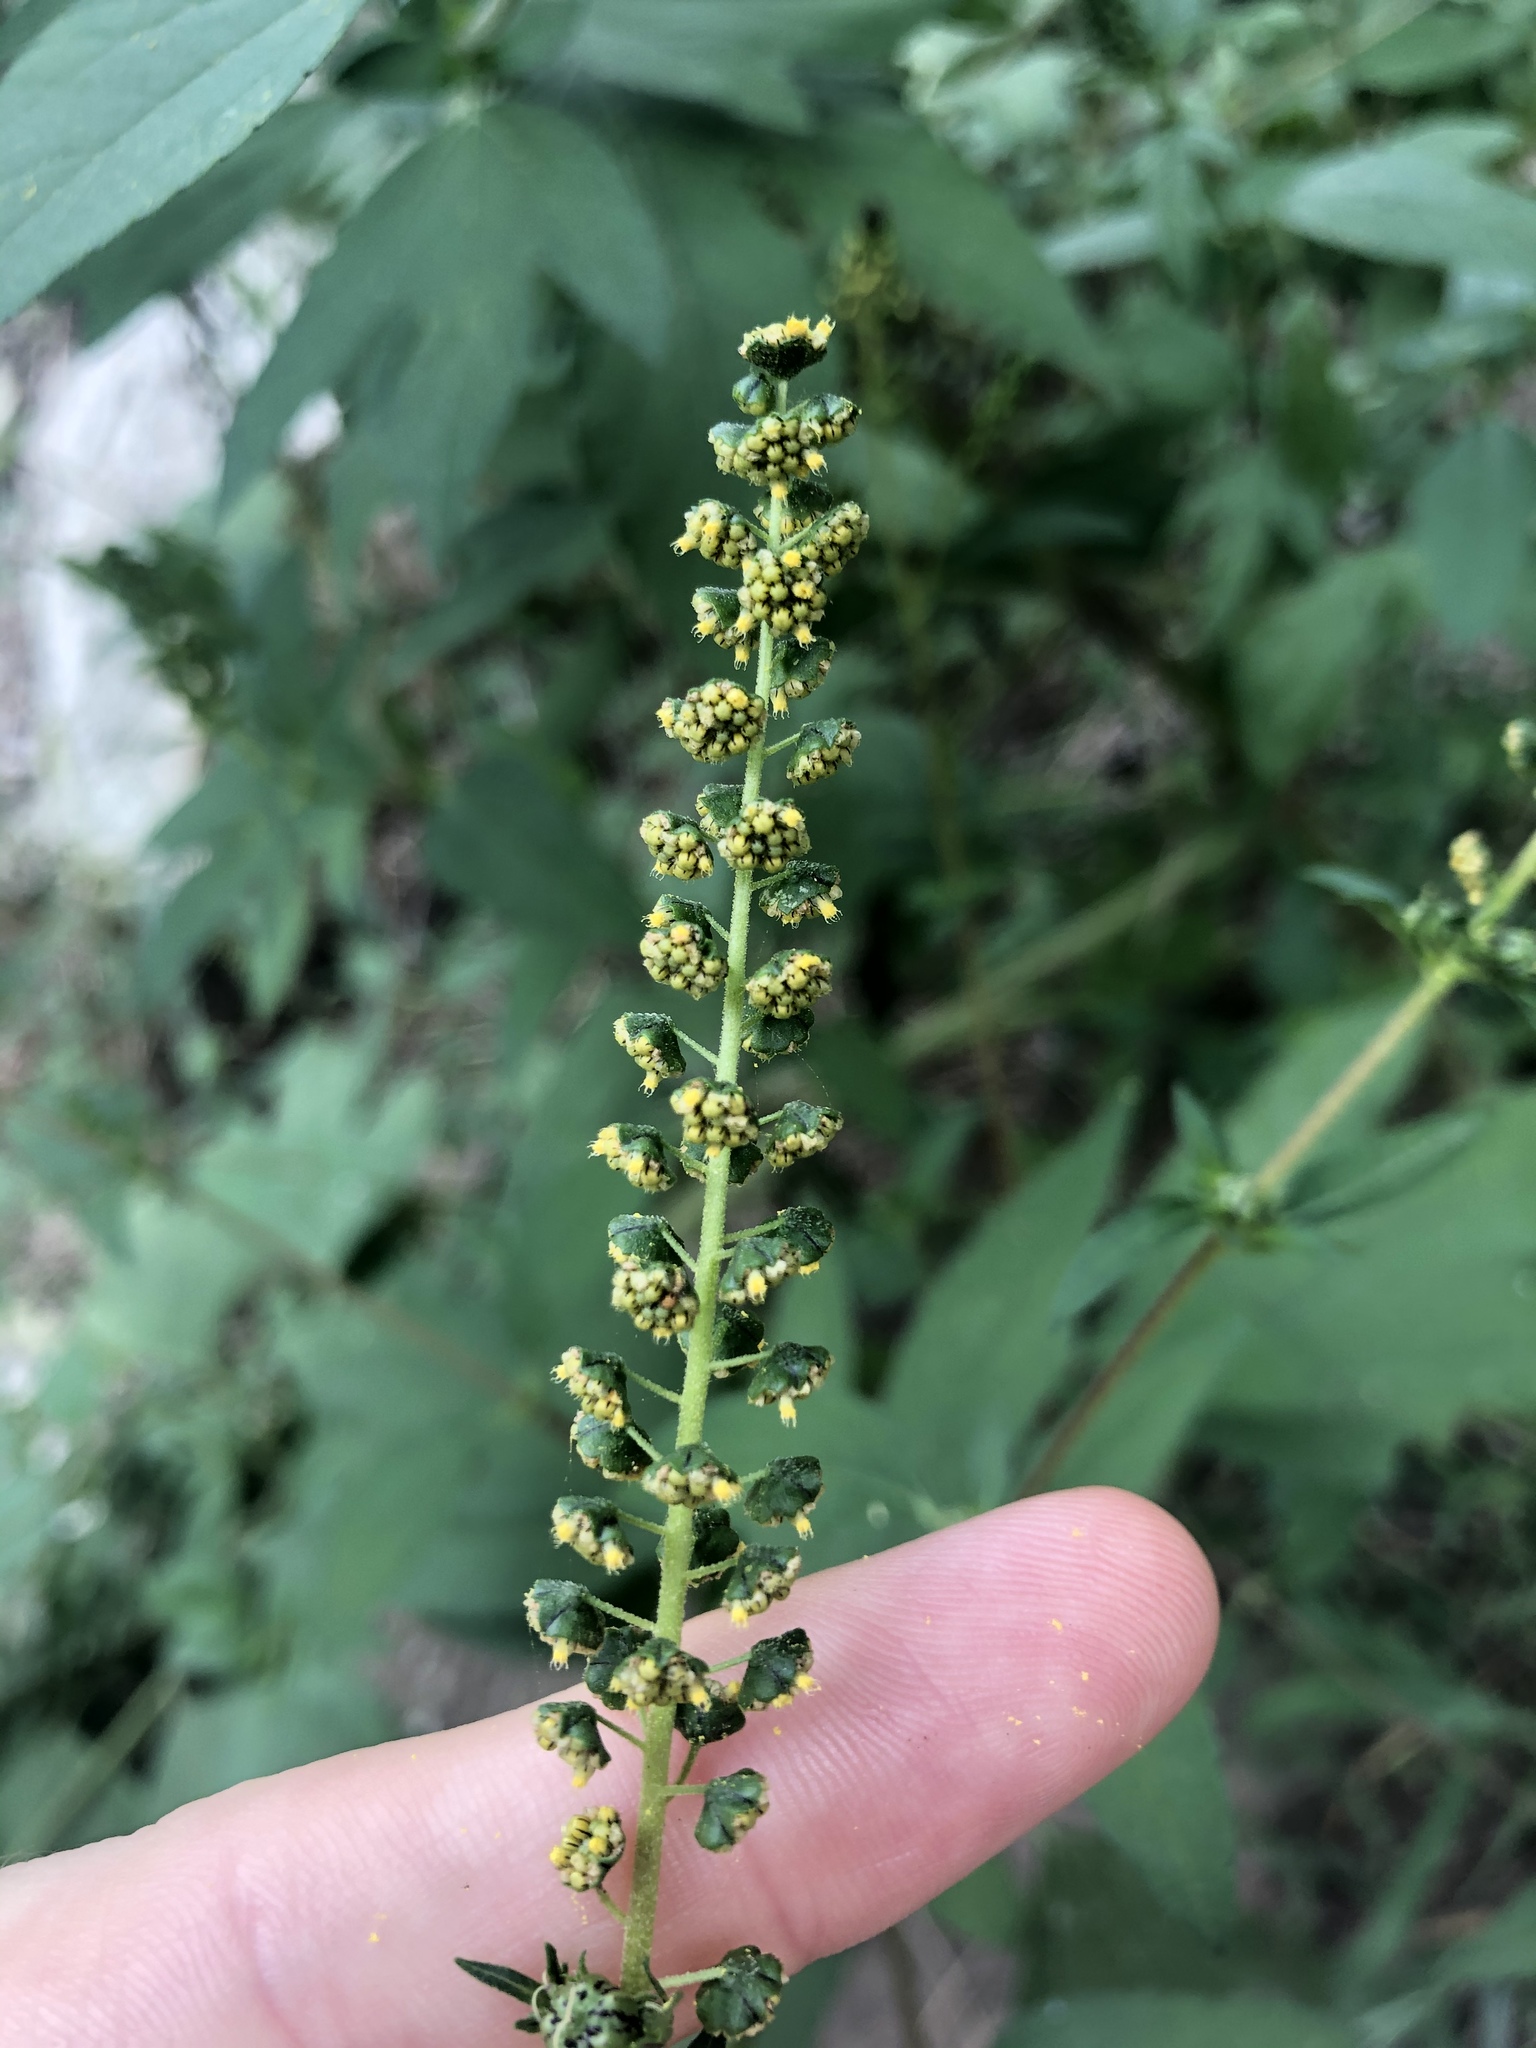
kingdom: Plantae
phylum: Tracheophyta
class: Magnoliopsida
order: Asterales
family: Asteraceae
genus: Ambrosia
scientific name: Ambrosia trifida
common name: Giant ragweed
